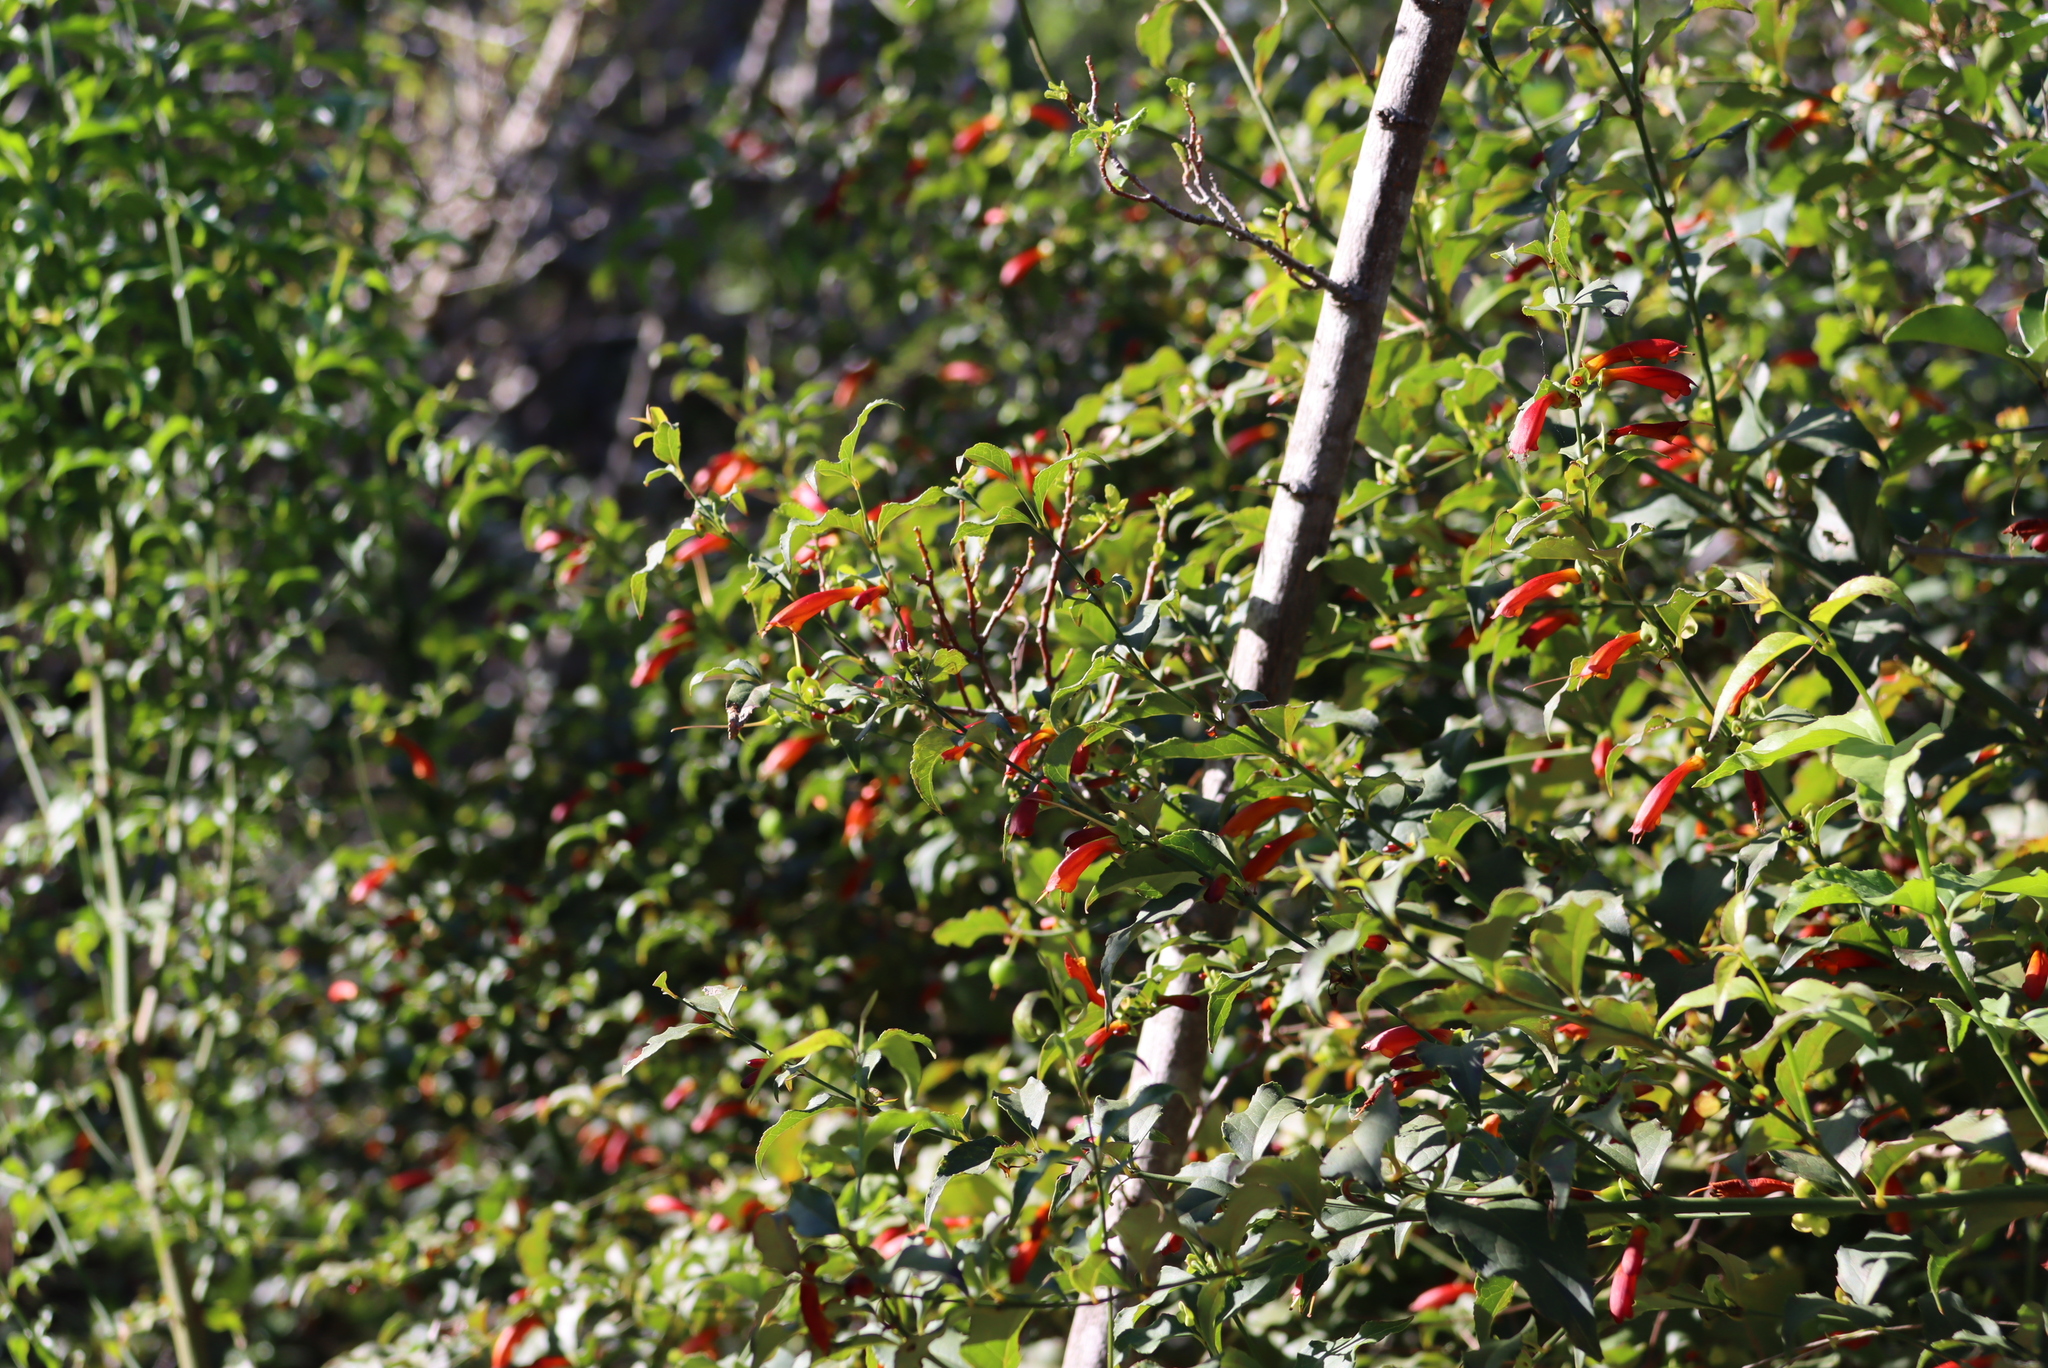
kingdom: Plantae
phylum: Tracheophyta
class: Magnoliopsida
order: Lamiales
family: Stilbaceae
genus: Halleria
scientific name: Halleria lucida
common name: Tree fuschia
